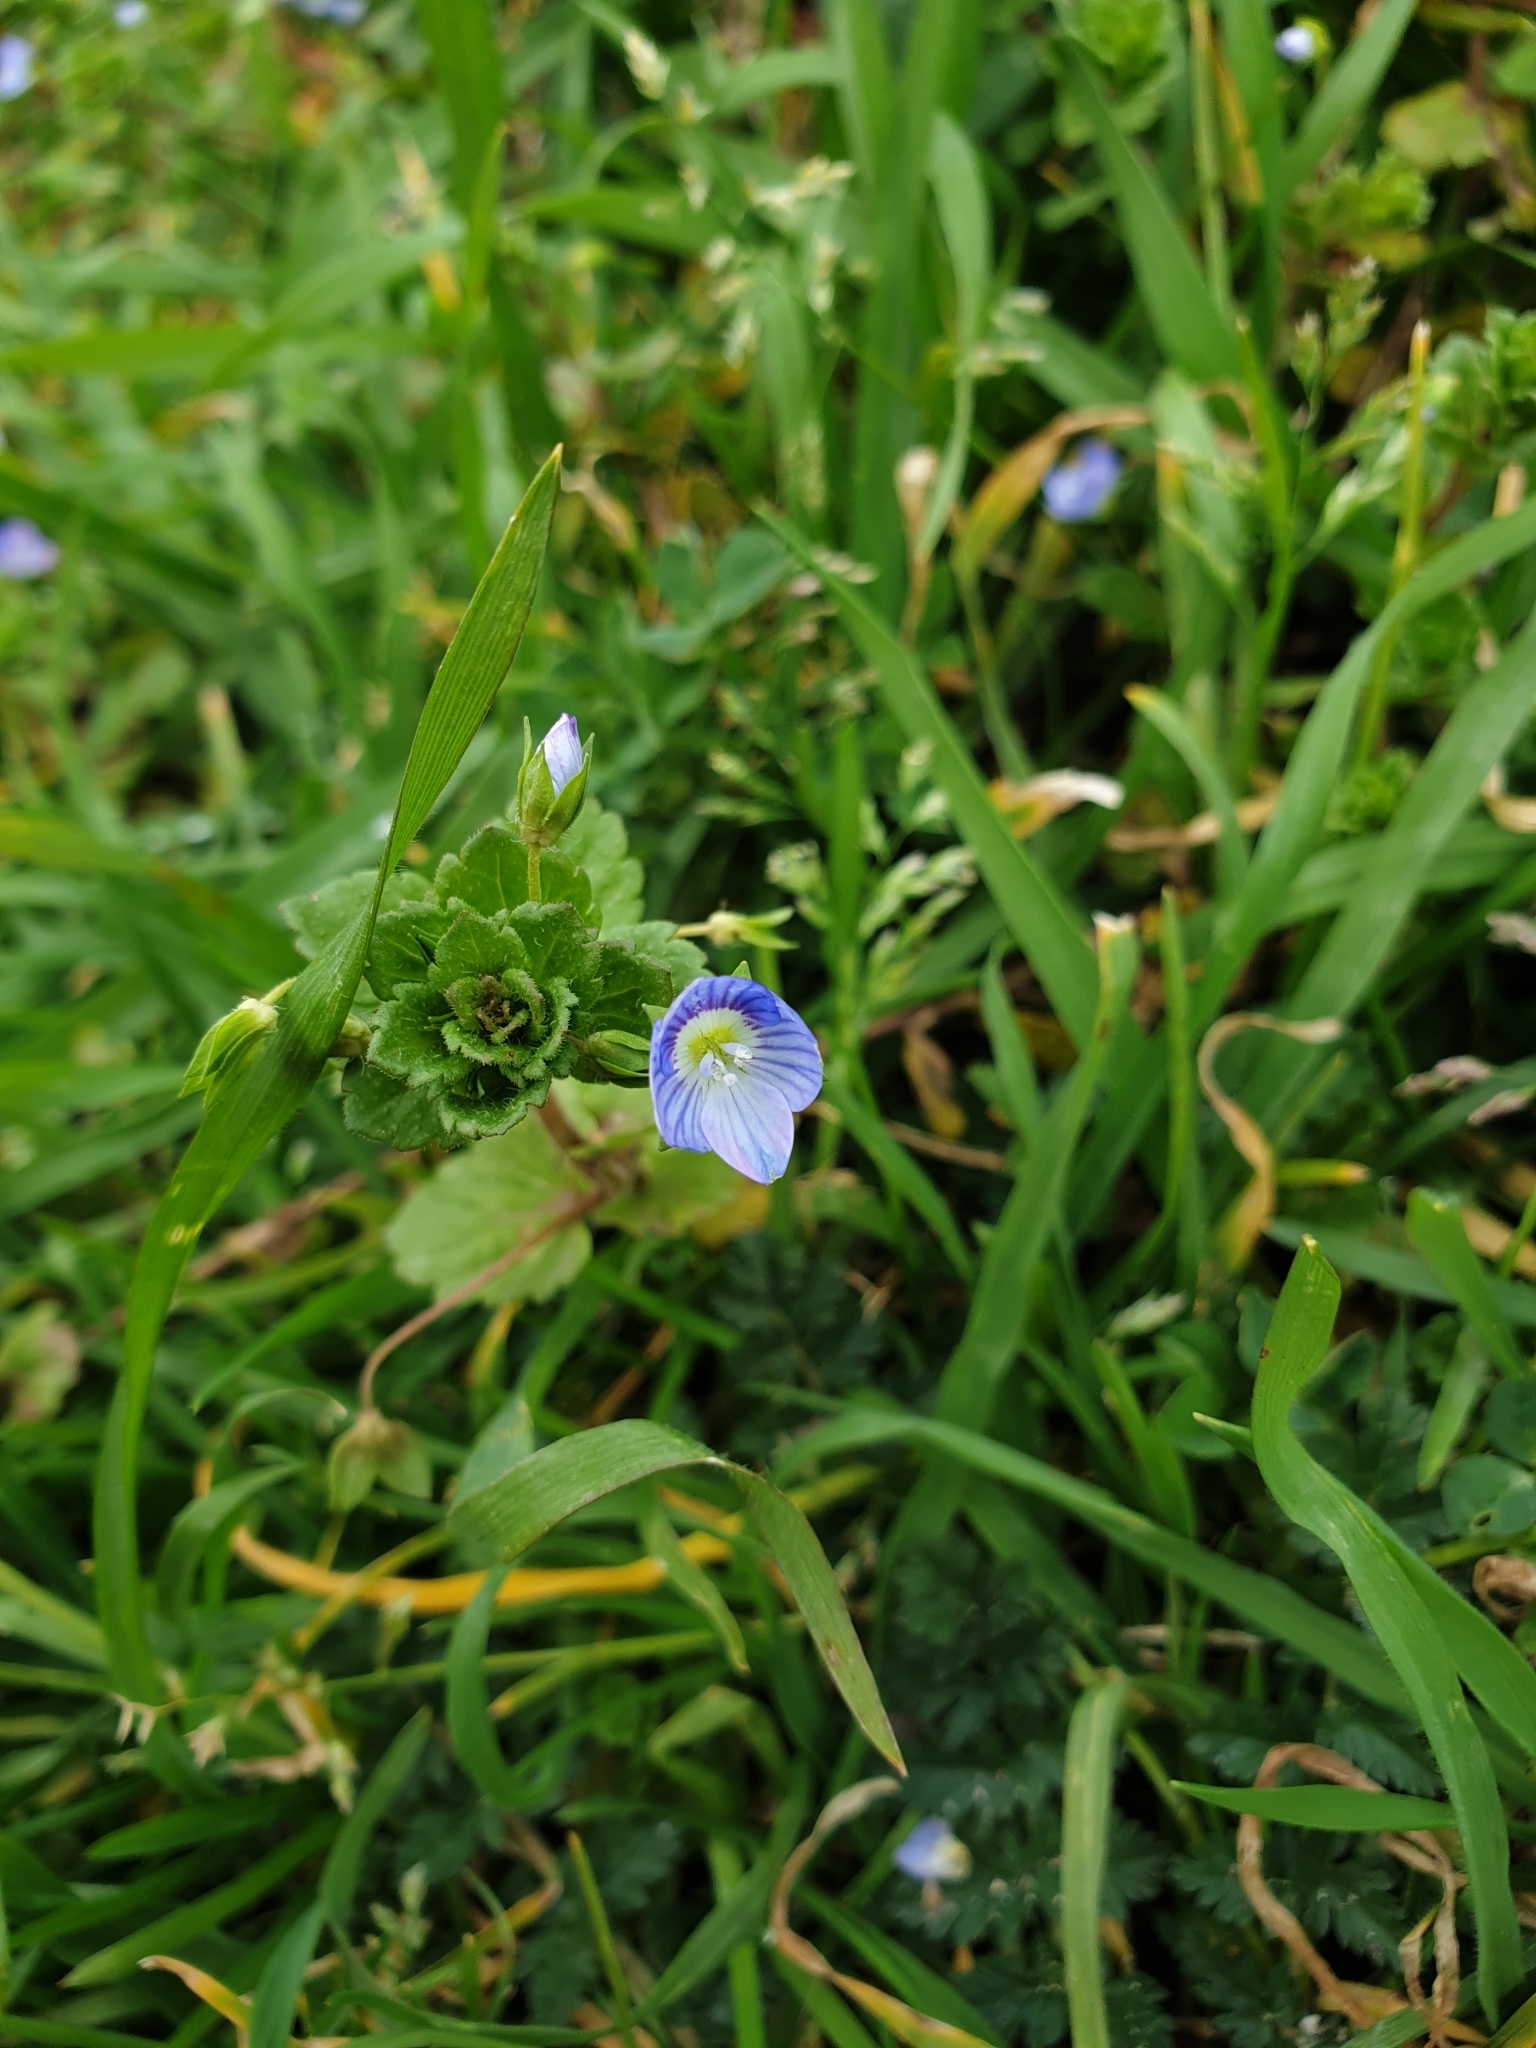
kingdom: Plantae
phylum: Tracheophyta
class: Magnoliopsida
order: Lamiales
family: Plantaginaceae
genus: Veronica
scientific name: Veronica persica
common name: Common field-speedwell
